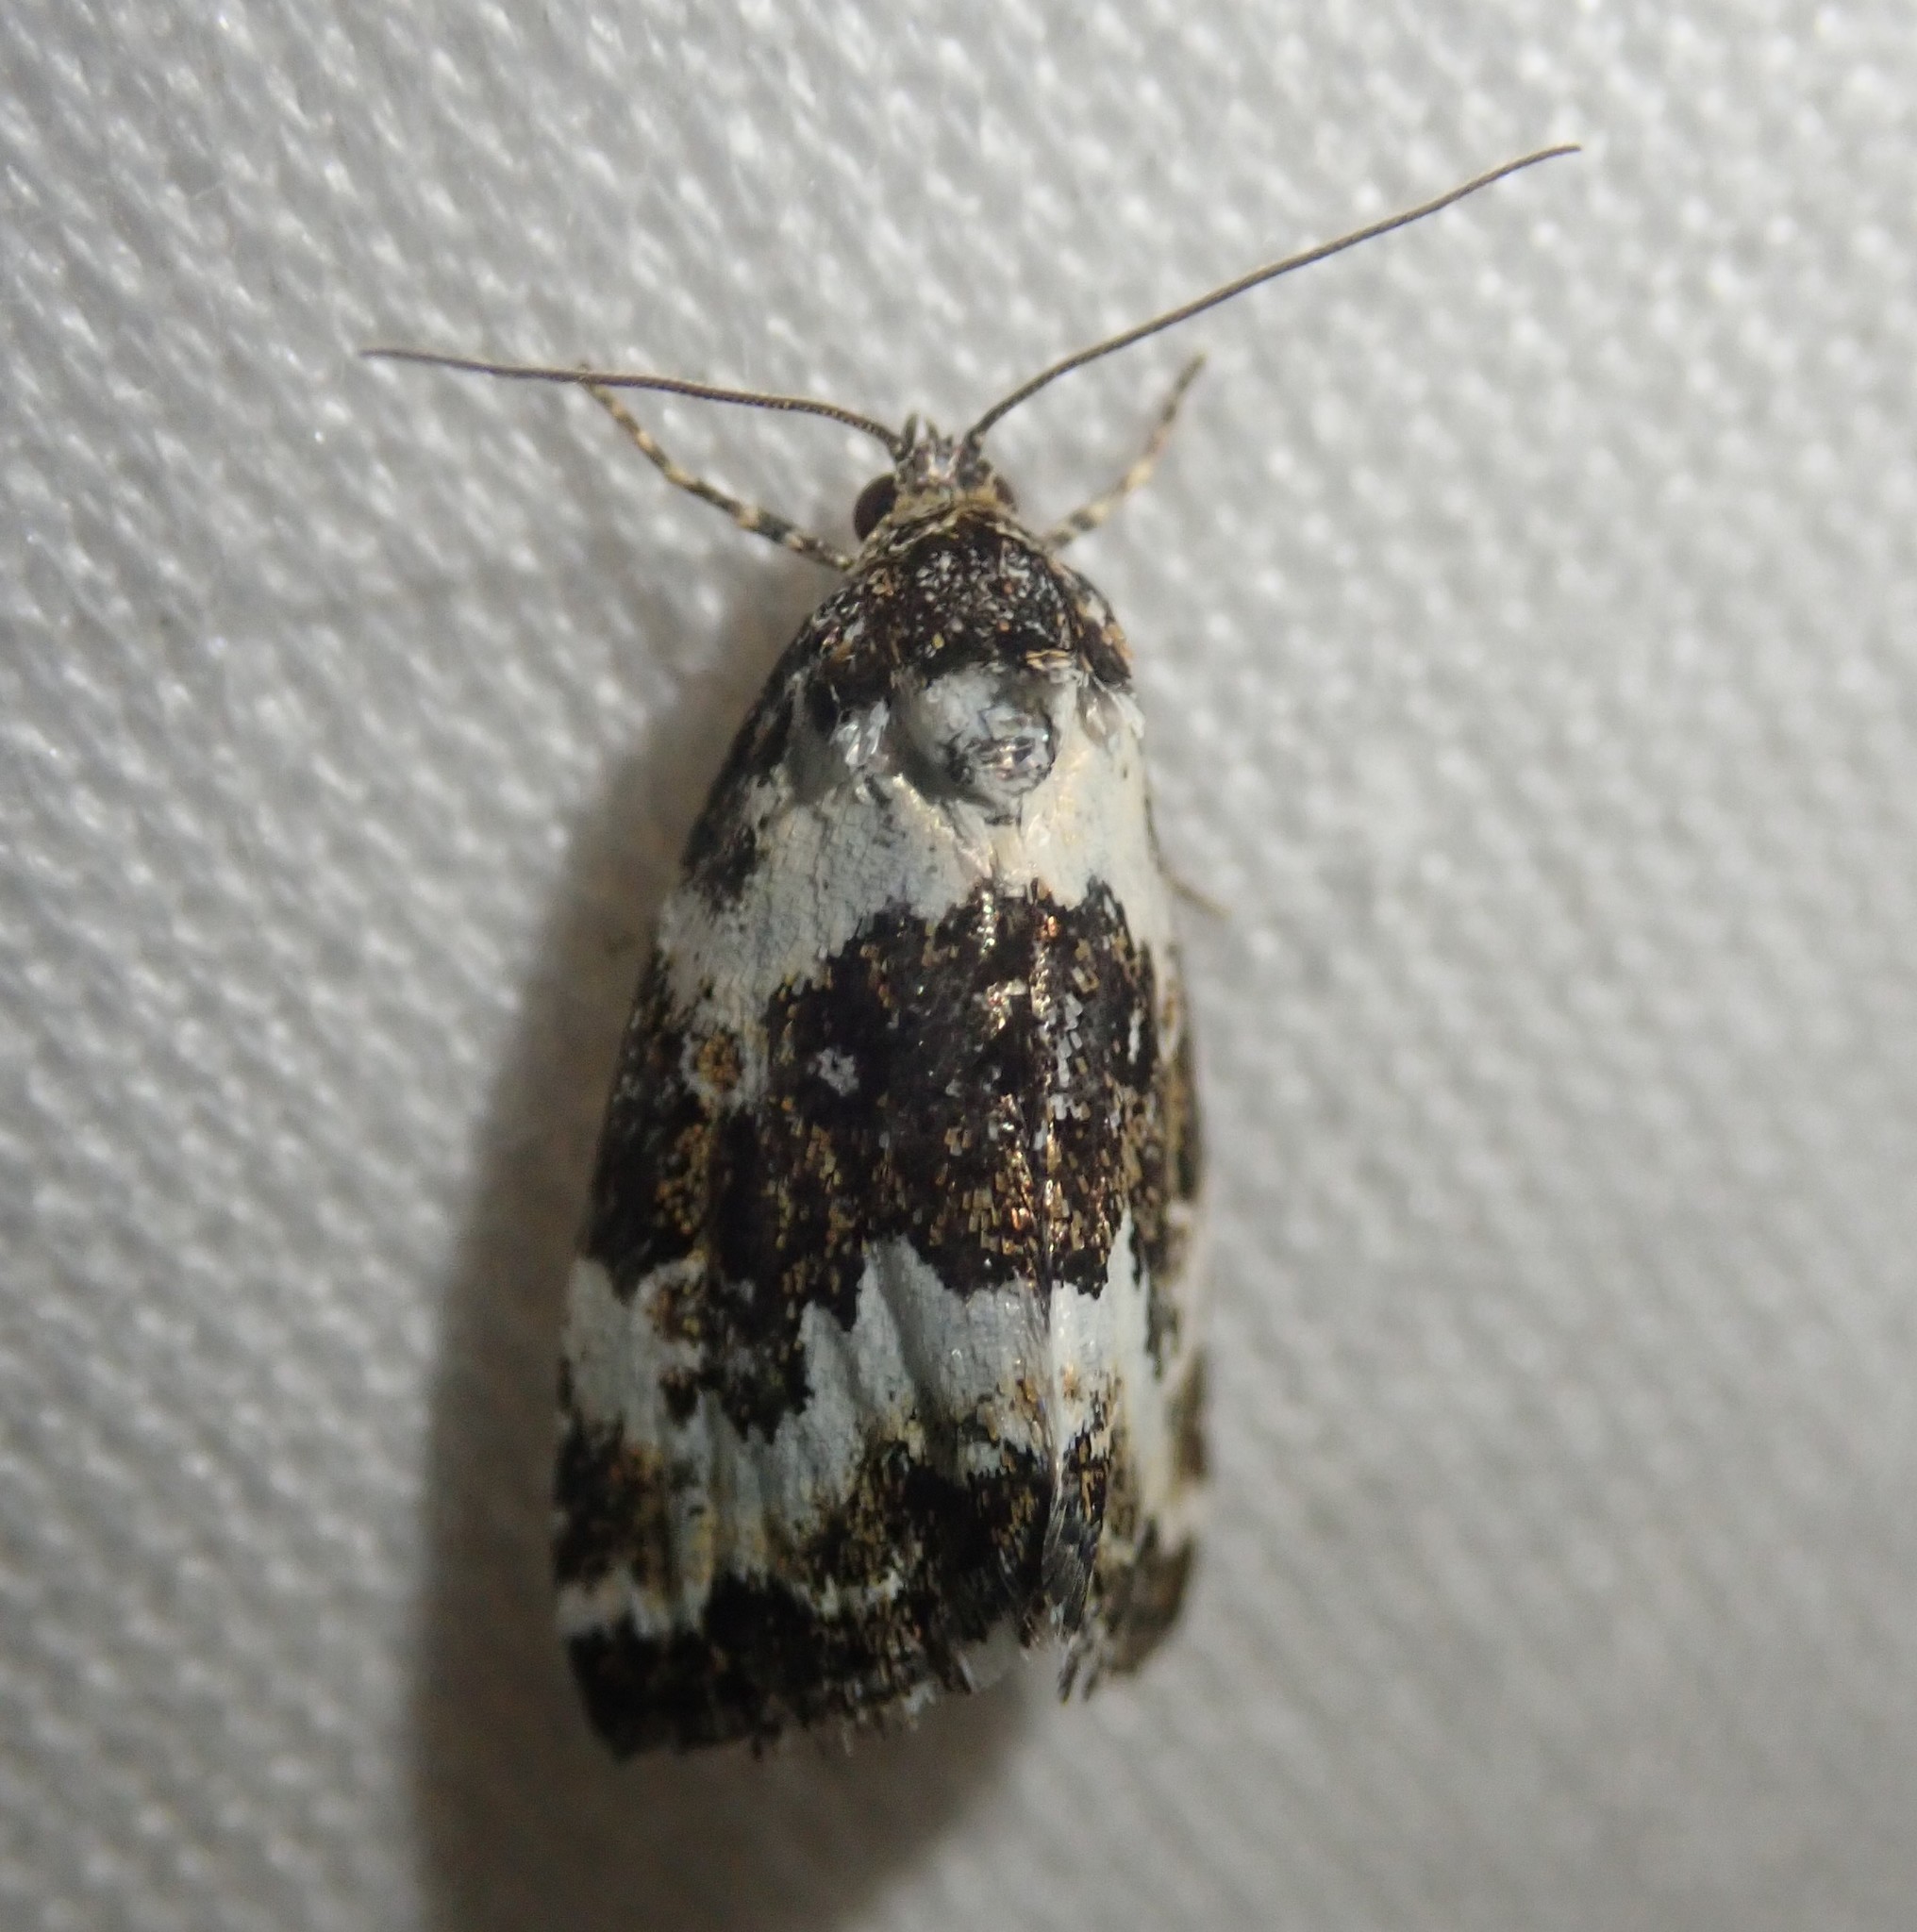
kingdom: Animalia
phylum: Arthropoda
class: Insecta
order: Lepidoptera
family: Noctuidae
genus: Deltote
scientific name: Deltote deceptoria
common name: Pretty marbled
